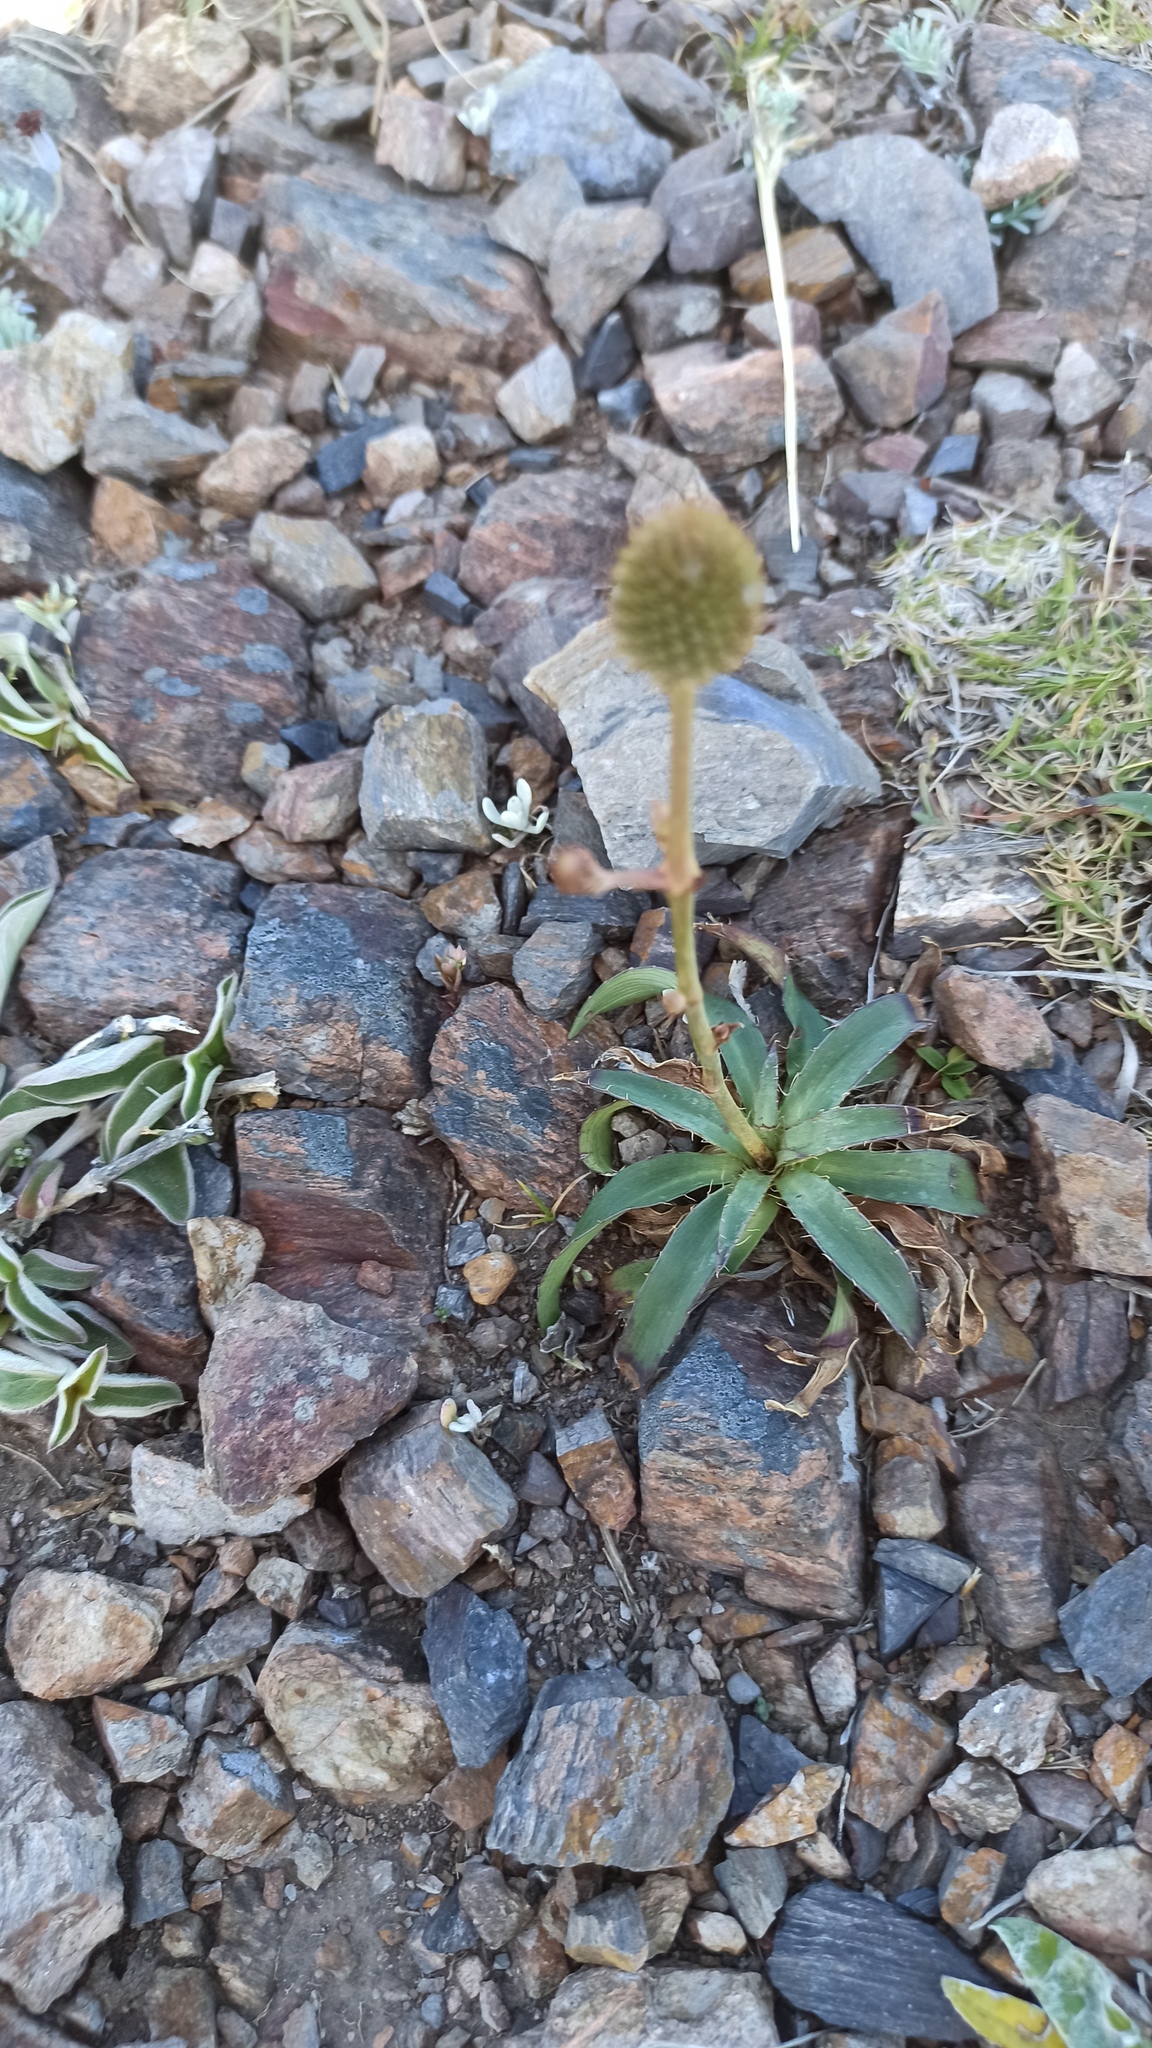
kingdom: Plantae
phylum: Tracheophyta
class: Magnoliopsida
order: Apiales
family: Apiaceae
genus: Eryngium
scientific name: Eryngium sanguisorba
